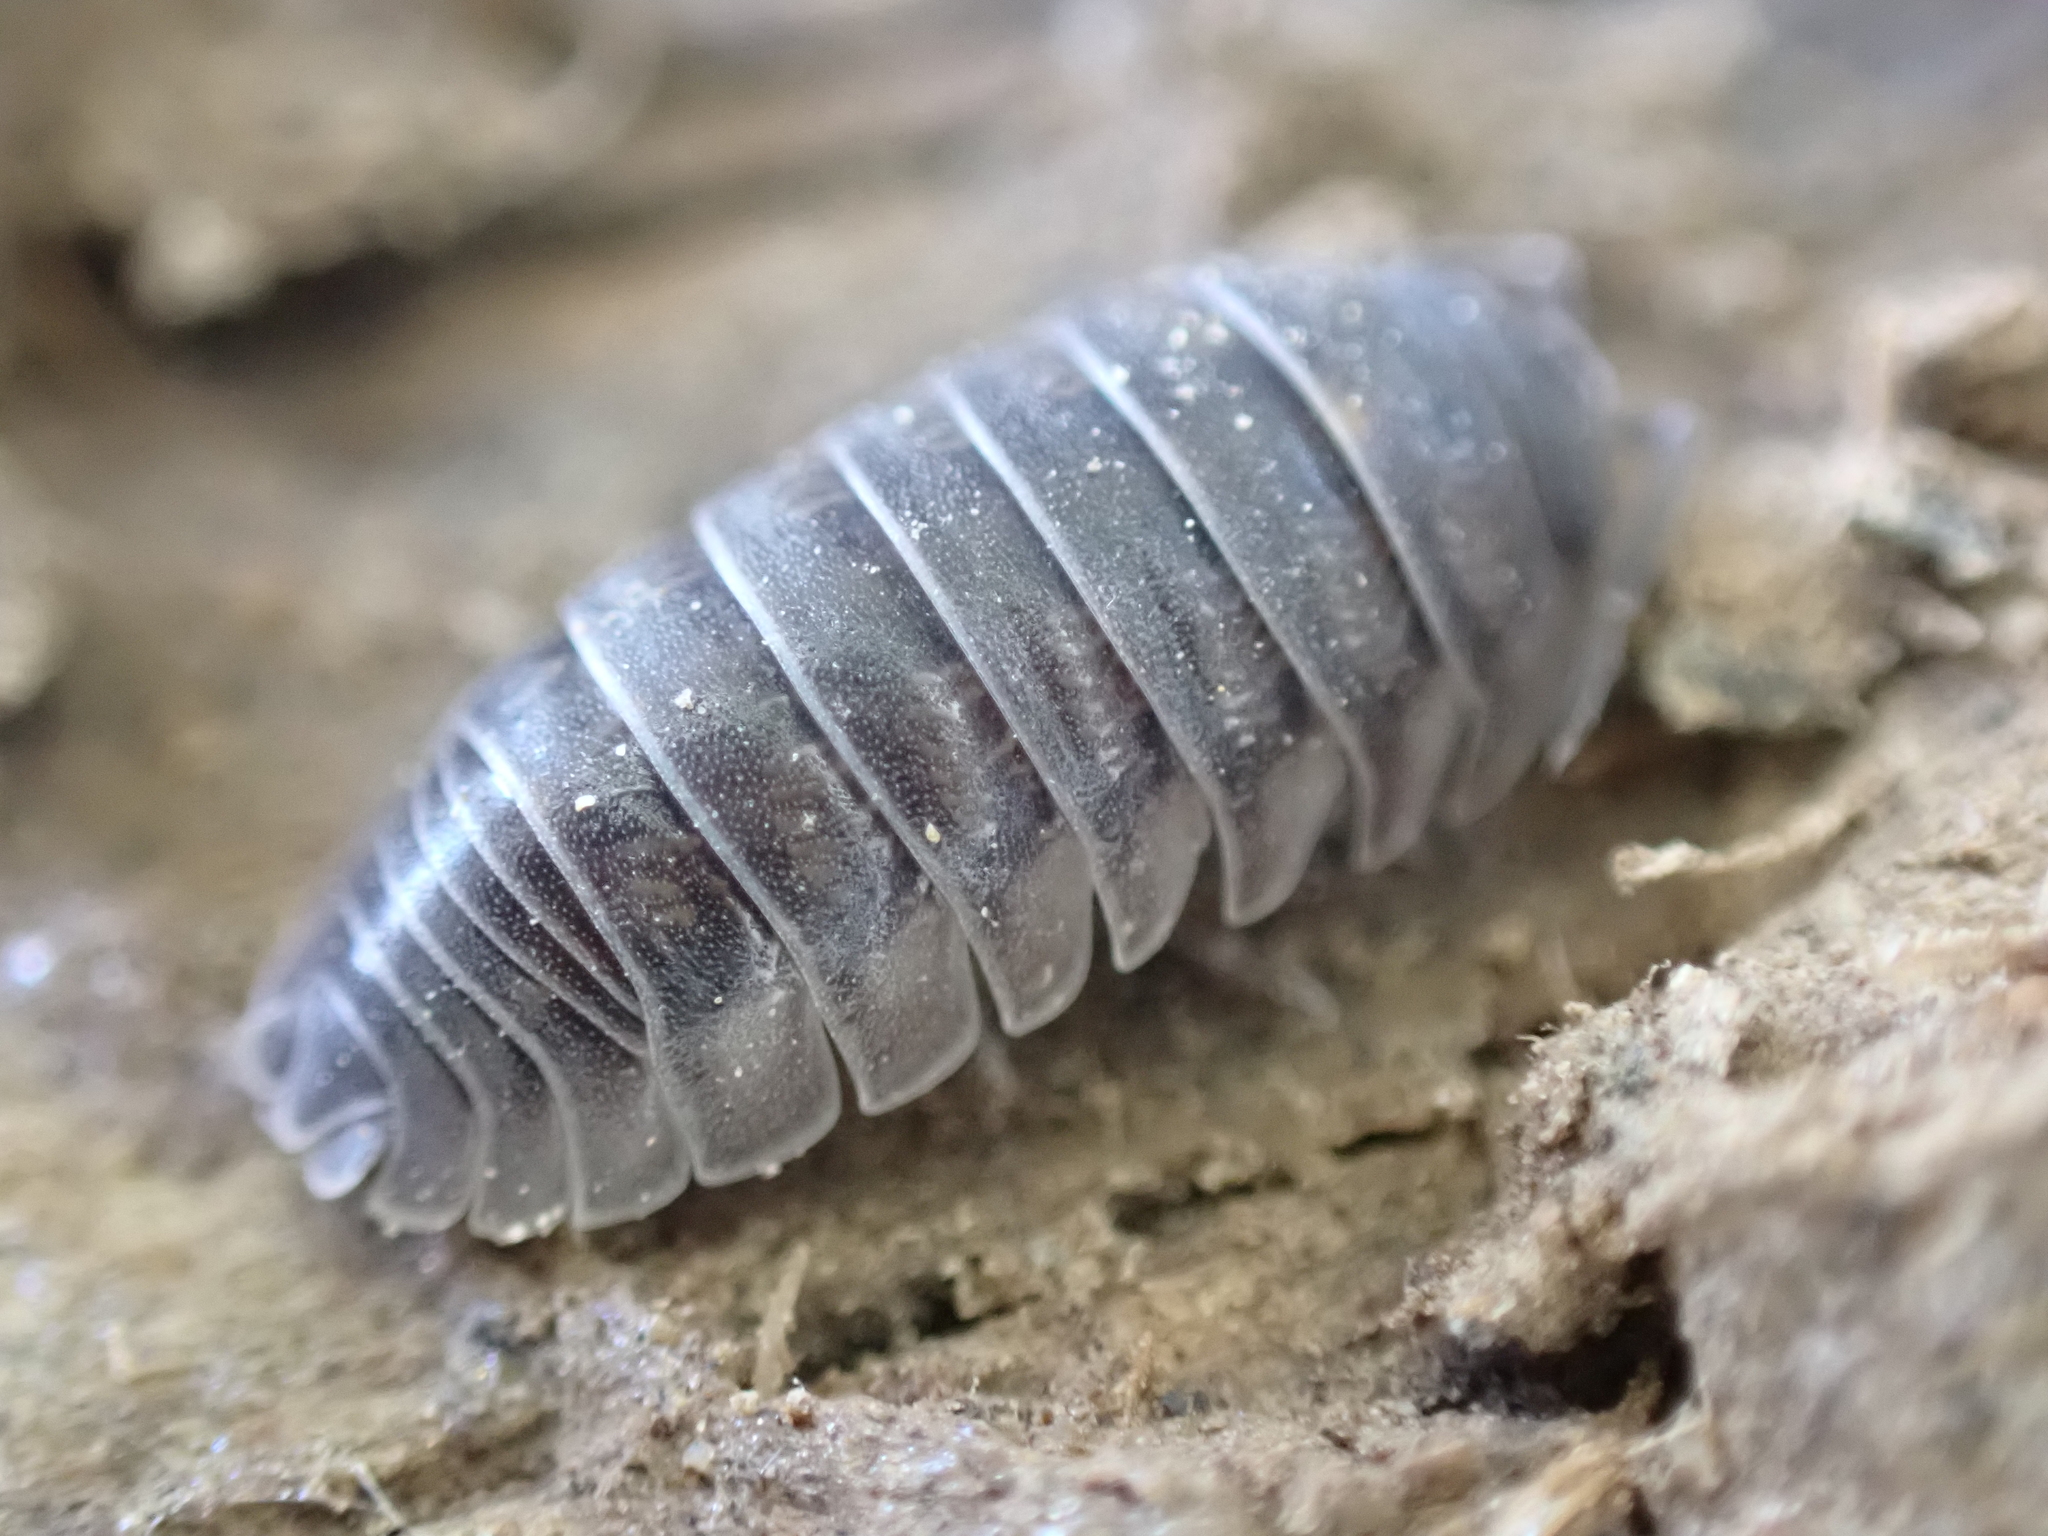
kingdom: Animalia
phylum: Arthropoda
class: Malacostraca
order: Isopoda
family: Armadillidiidae
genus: Armadillidium
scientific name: Armadillidium nasatum
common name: Isopod
